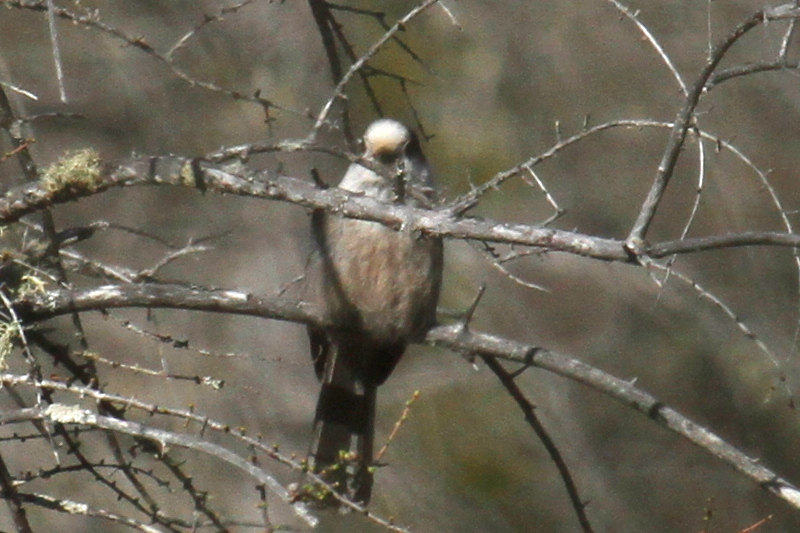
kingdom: Animalia
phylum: Chordata
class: Aves
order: Passeriformes
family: Corvidae
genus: Perisoreus
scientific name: Perisoreus canadensis
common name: Gray jay
